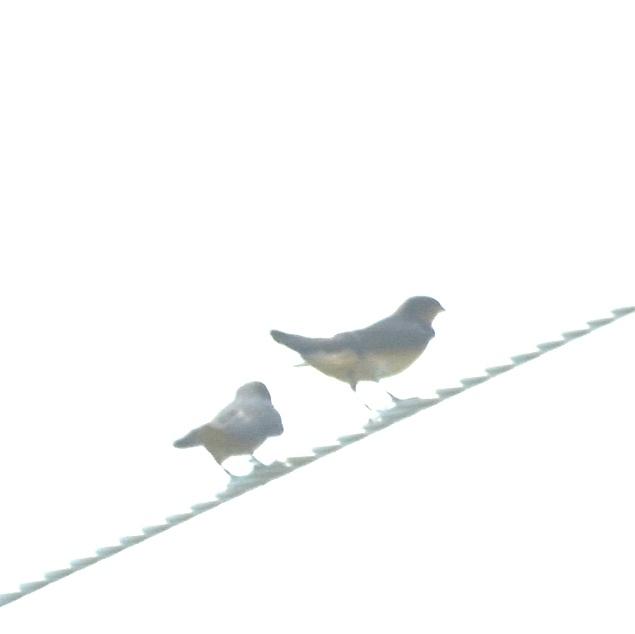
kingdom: Animalia
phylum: Chordata
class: Aves
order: Passeriformes
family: Hirundinidae
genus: Hirundo
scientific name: Hirundo rustica
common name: Barn swallow
